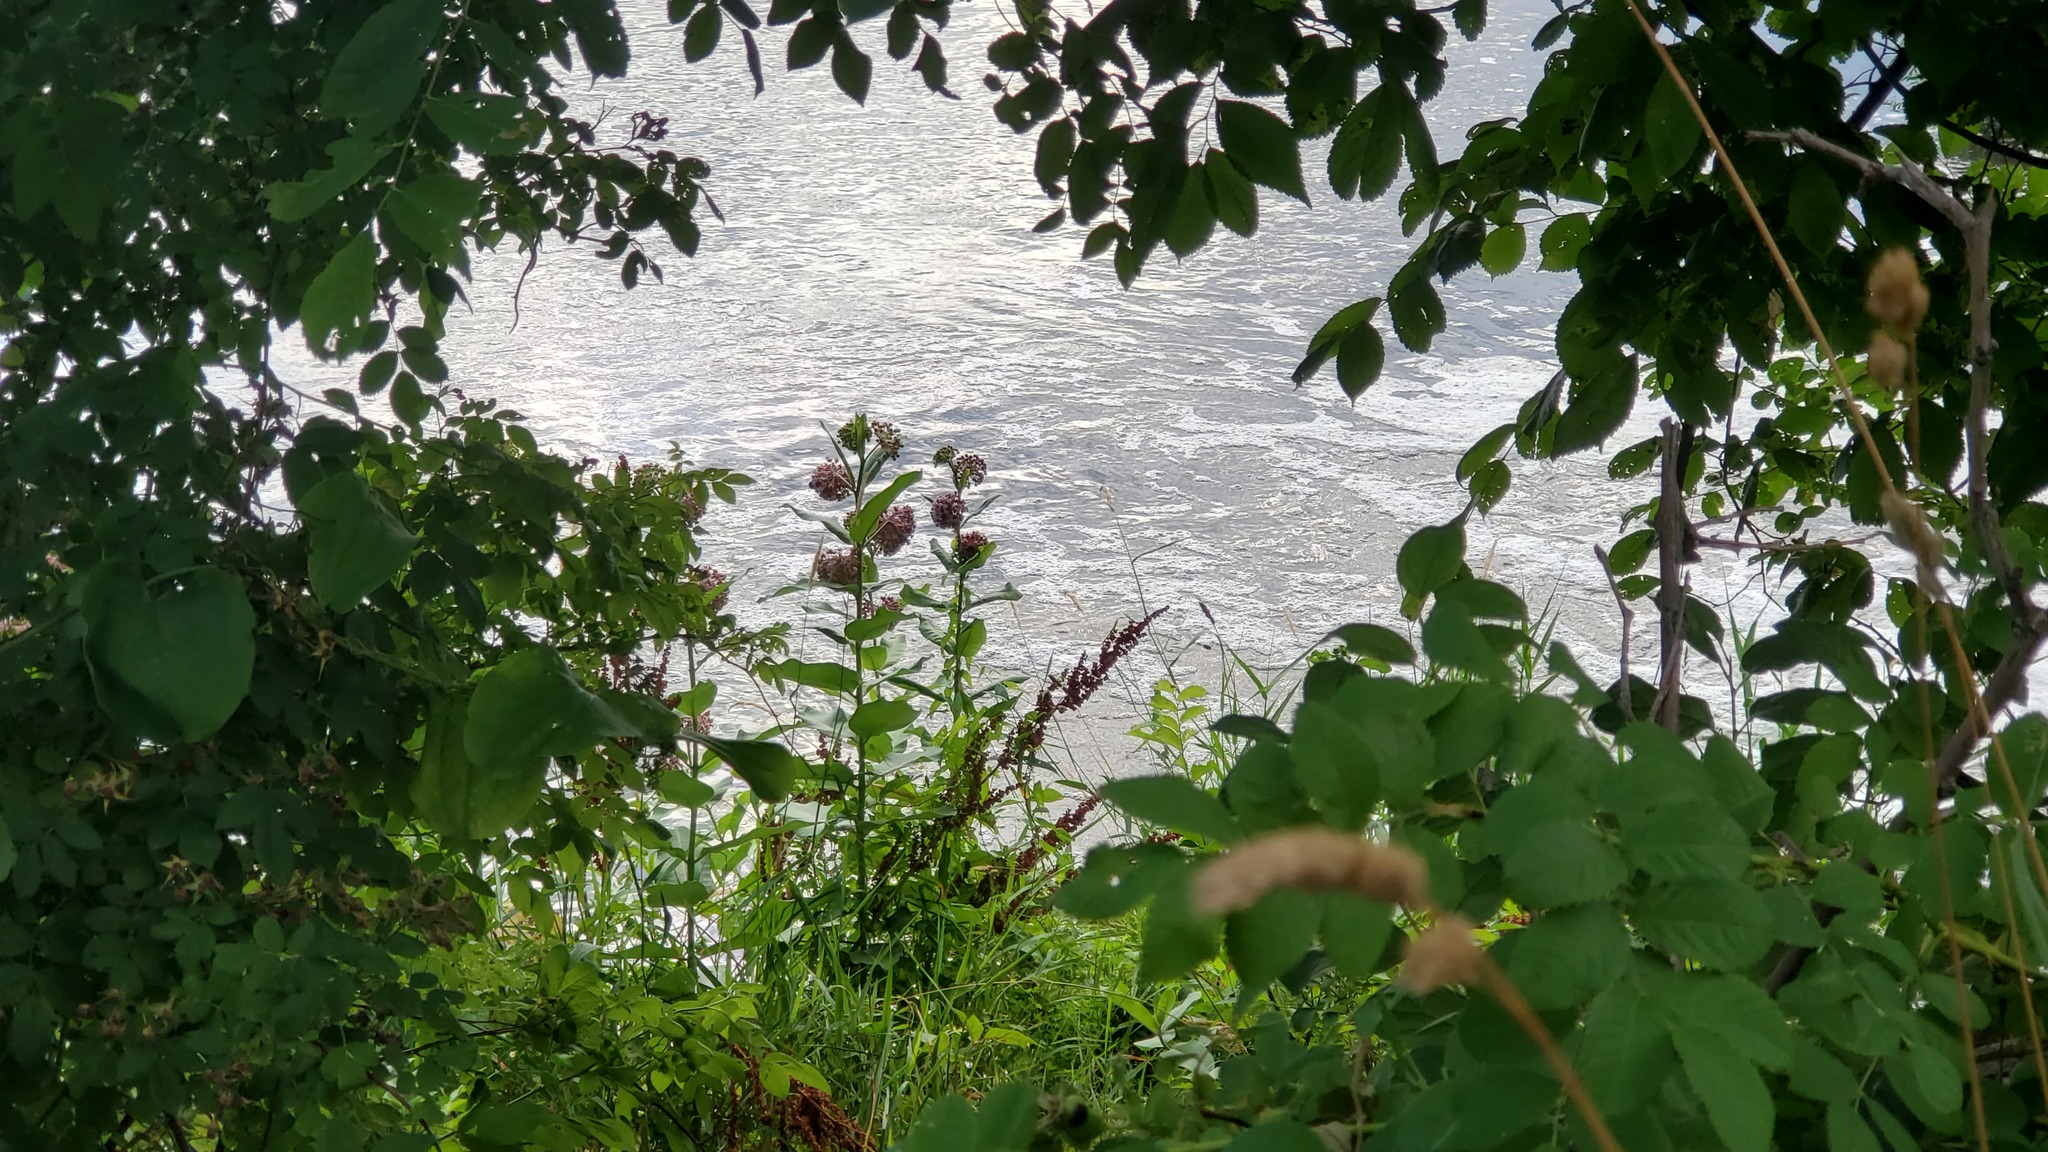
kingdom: Plantae
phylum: Tracheophyta
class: Magnoliopsida
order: Gentianales
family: Apocynaceae
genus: Asclepias
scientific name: Asclepias syriaca
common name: Common milkweed
